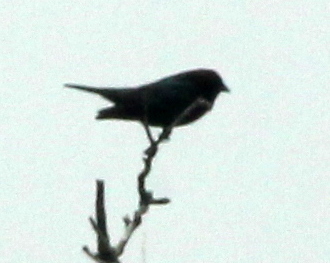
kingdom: Animalia
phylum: Chordata
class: Aves
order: Passeriformes
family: Icteridae
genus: Molothrus
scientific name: Molothrus ater
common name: Brown-headed cowbird
